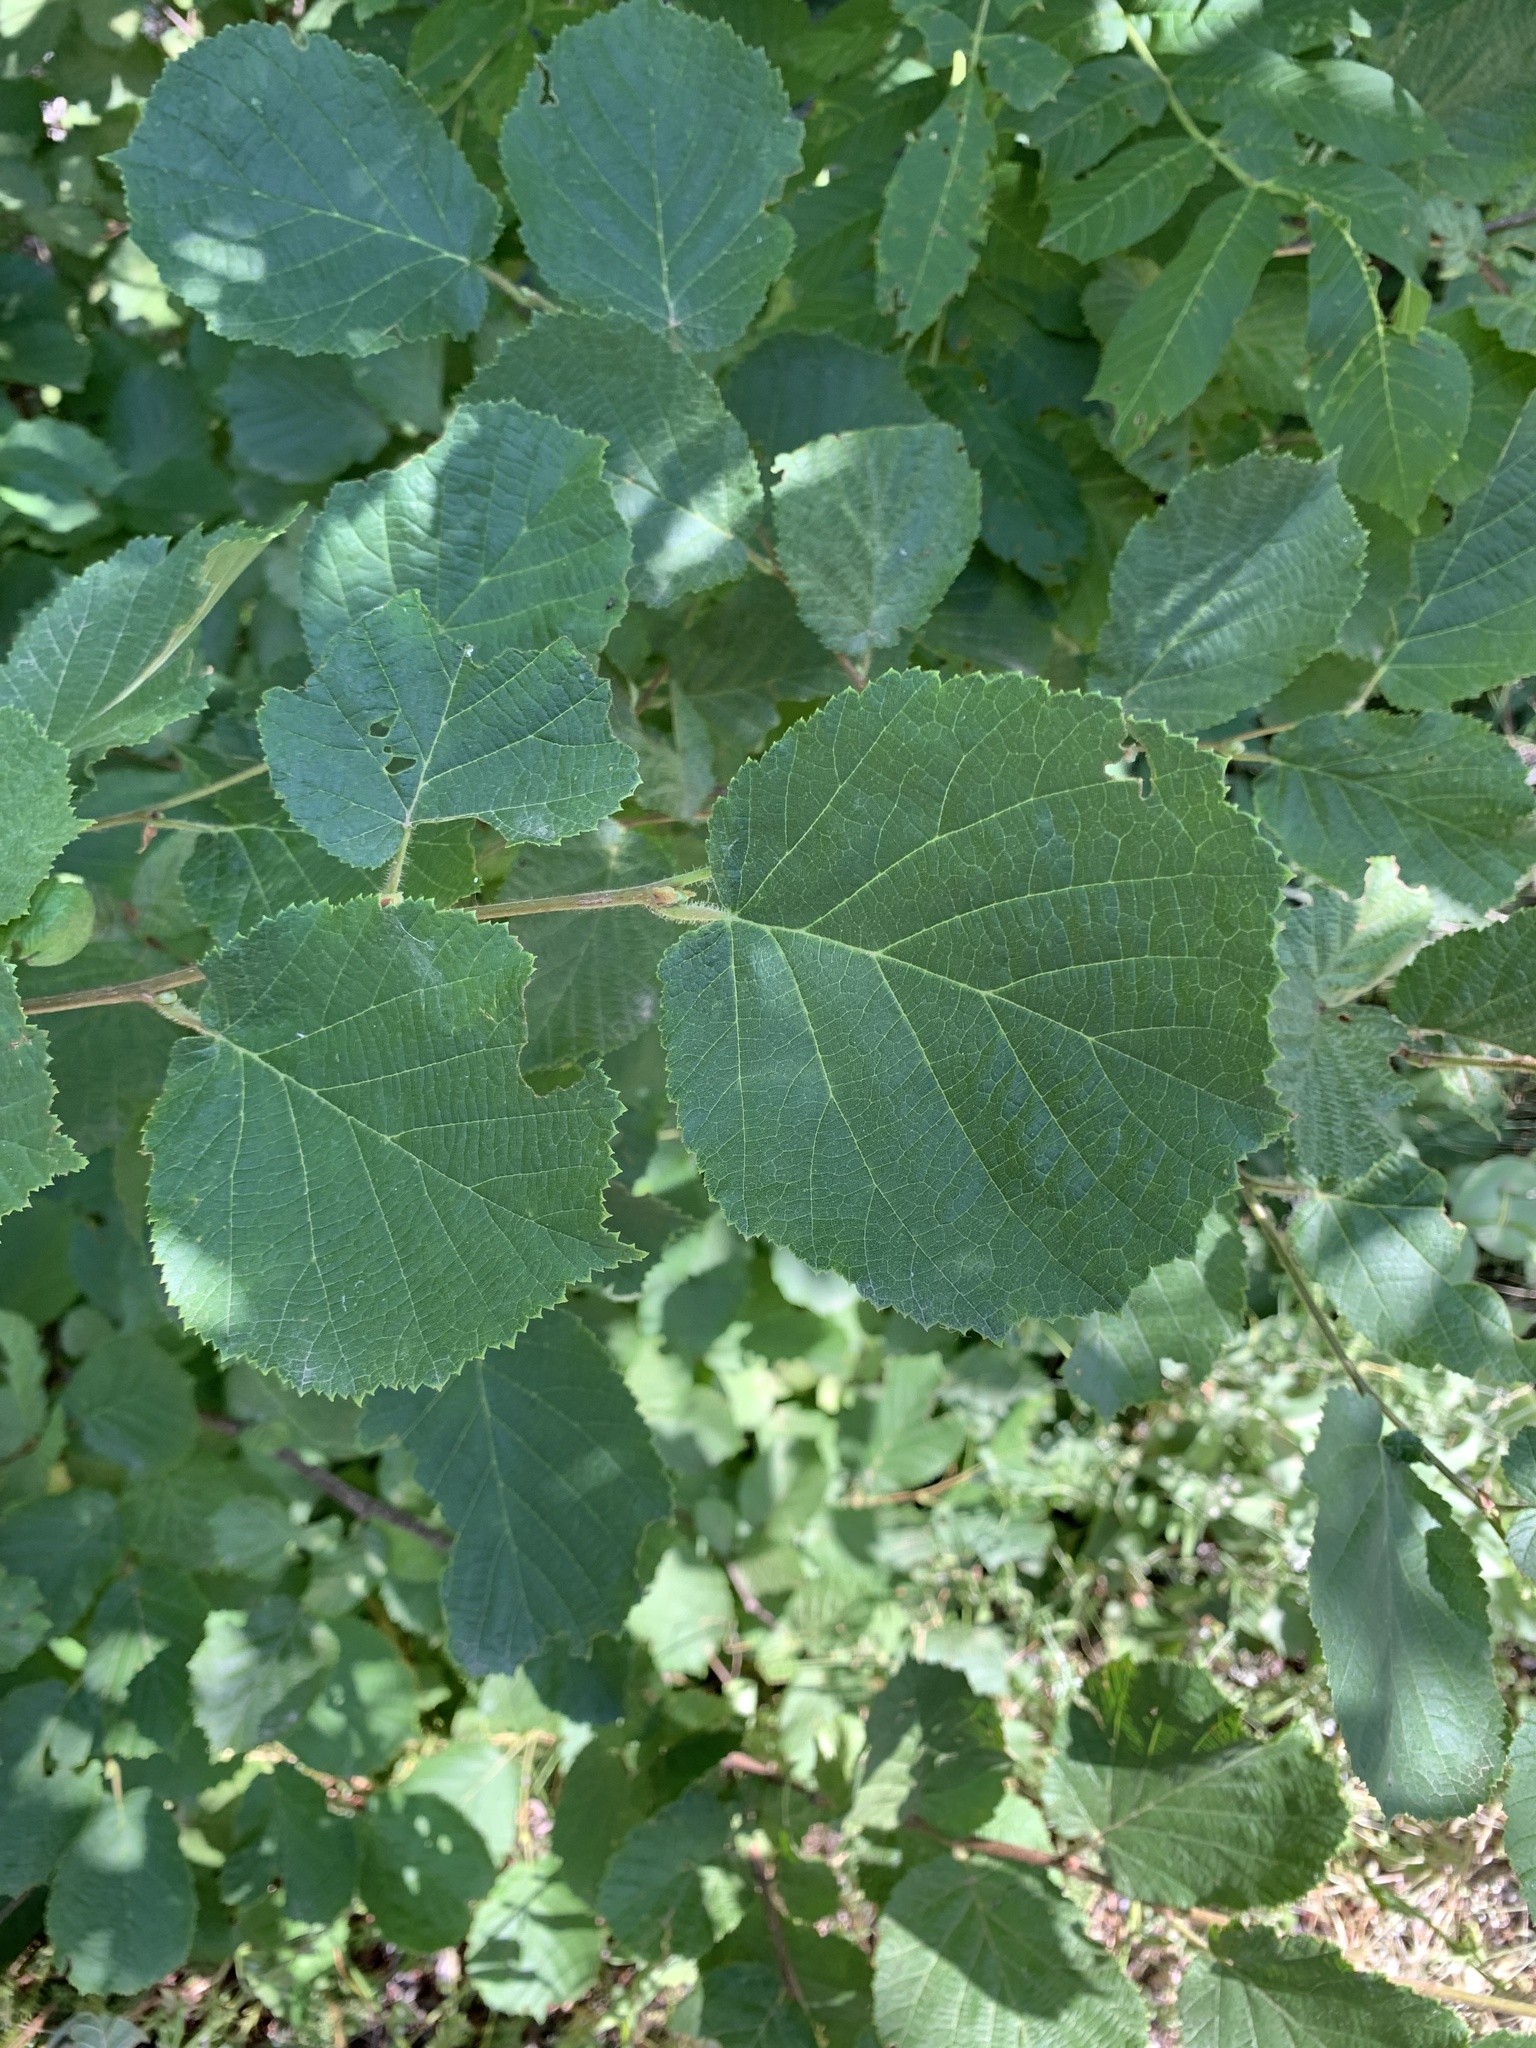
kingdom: Plantae
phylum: Tracheophyta
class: Magnoliopsida
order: Fagales
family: Betulaceae
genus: Corylus
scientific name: Corylus avellana
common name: European hazel
